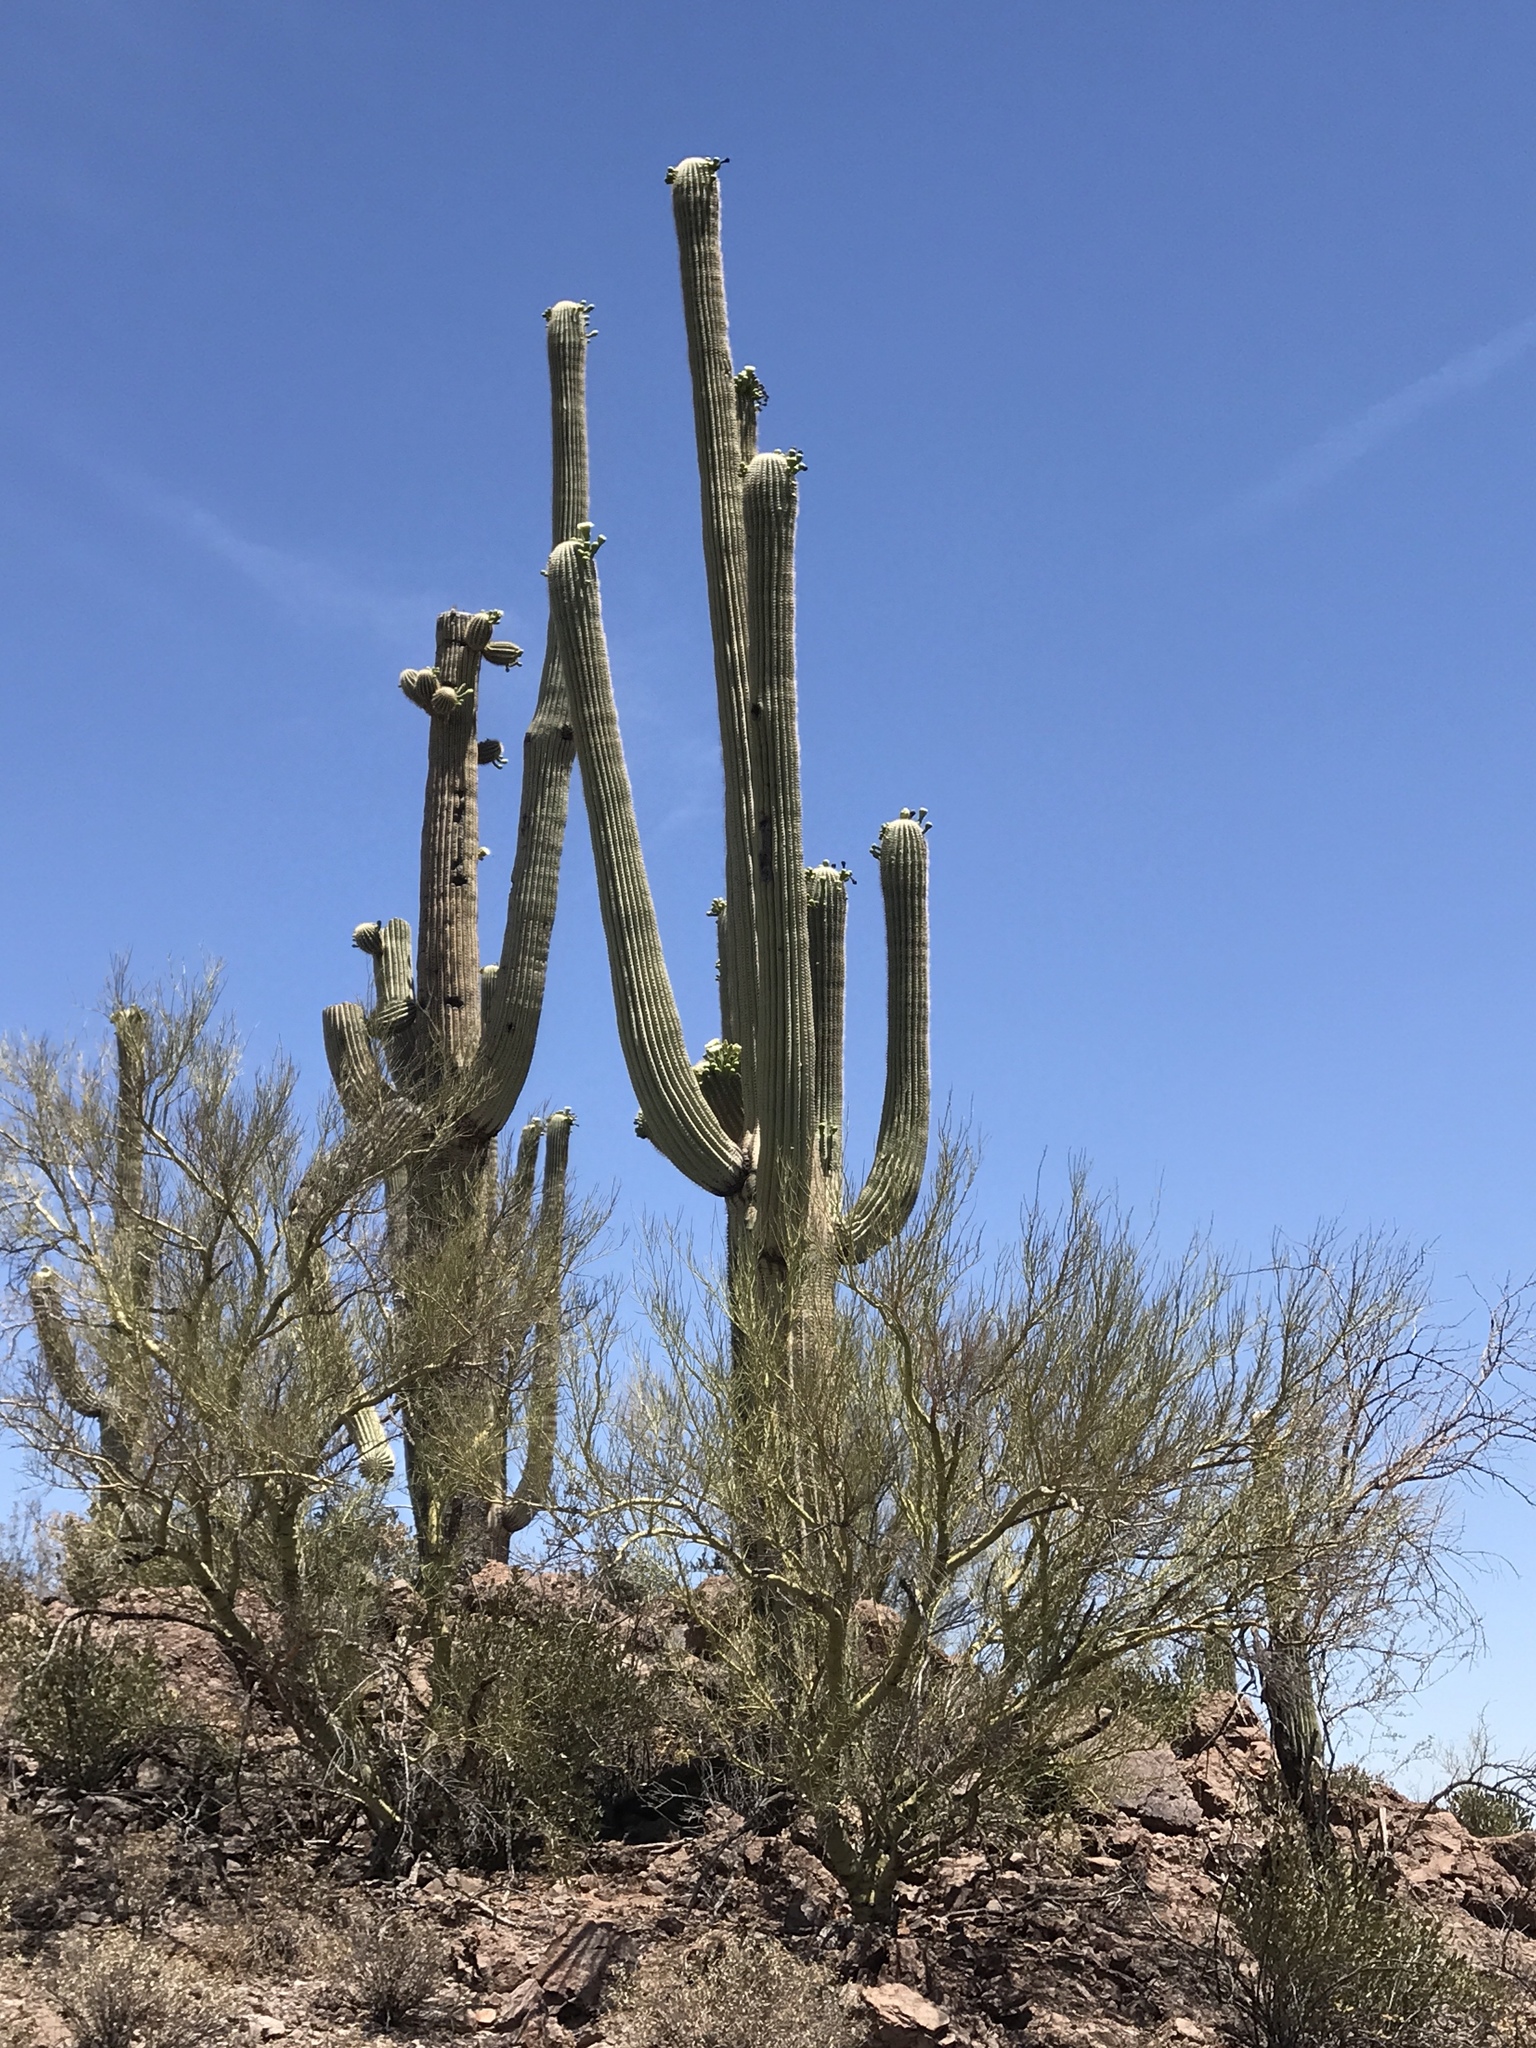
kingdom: Plantae
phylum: Tracheophyta
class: Magnoliopsida
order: Caryophyllales
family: Cactaceae
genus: Carnegiea
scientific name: Carnegiea gigantea
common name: Saguaro
